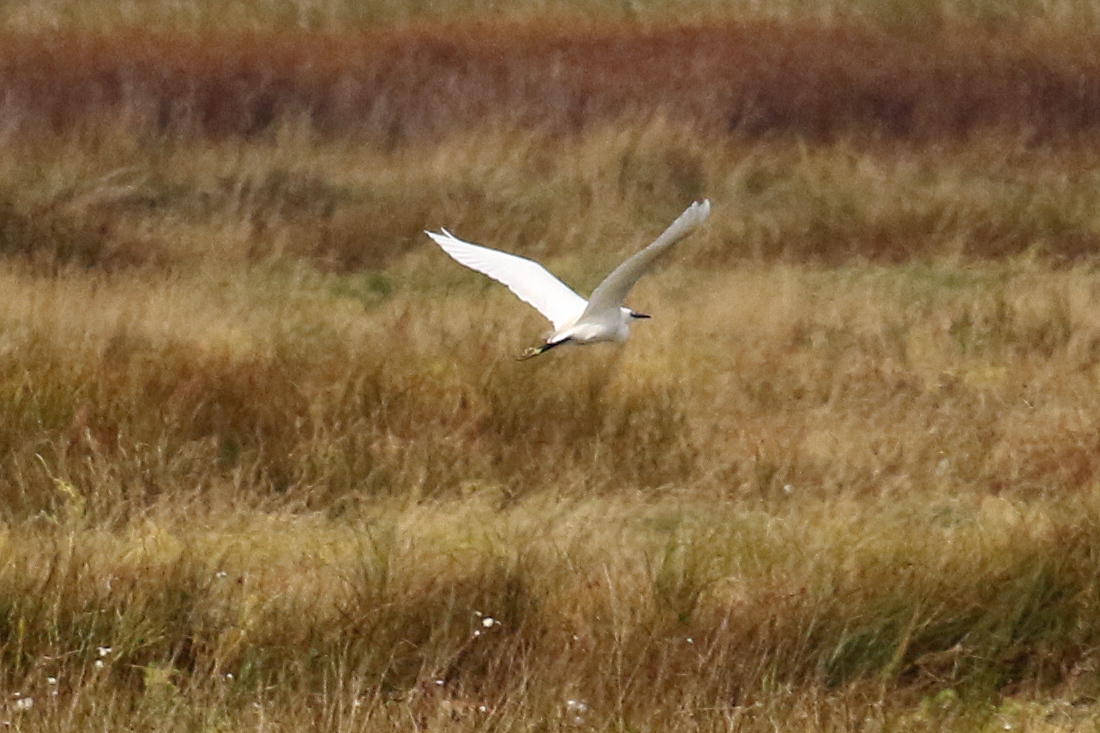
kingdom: Animalia
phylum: Chordata
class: Aves
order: Pelecaniformes
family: Ardeidae
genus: Egretta
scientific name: Egretta garzetta
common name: Little egret
